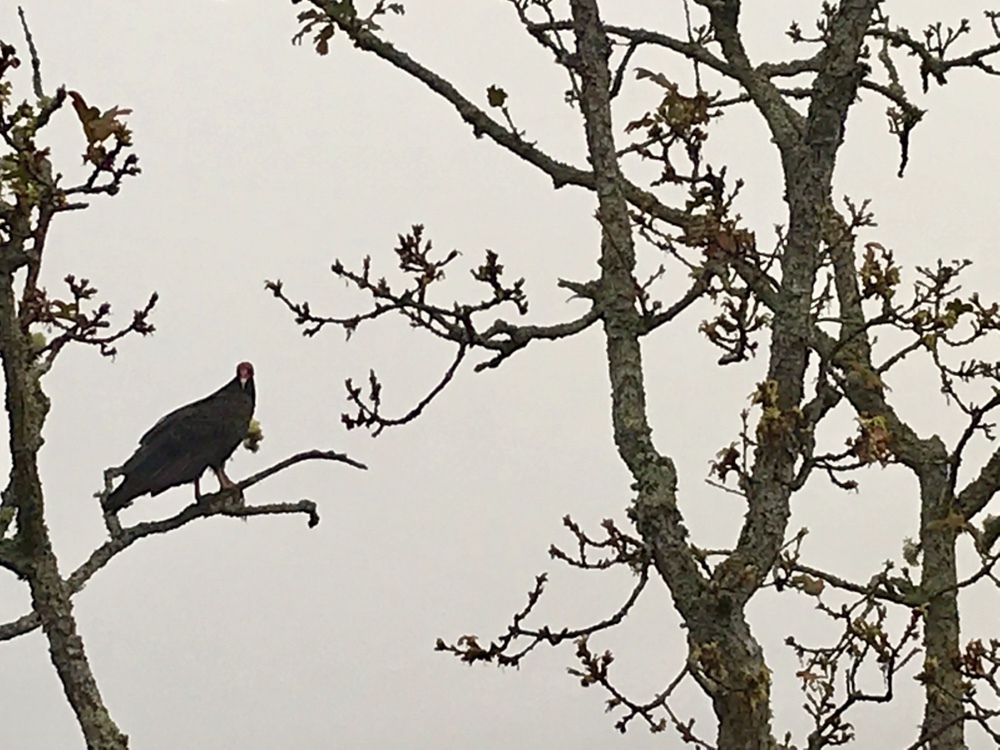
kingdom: Animalia
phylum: Chordata
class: Aves
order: Accipitriformes
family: Cathartidae
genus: Cathartes
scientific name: Cathartes aura
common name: Turkey vulture
